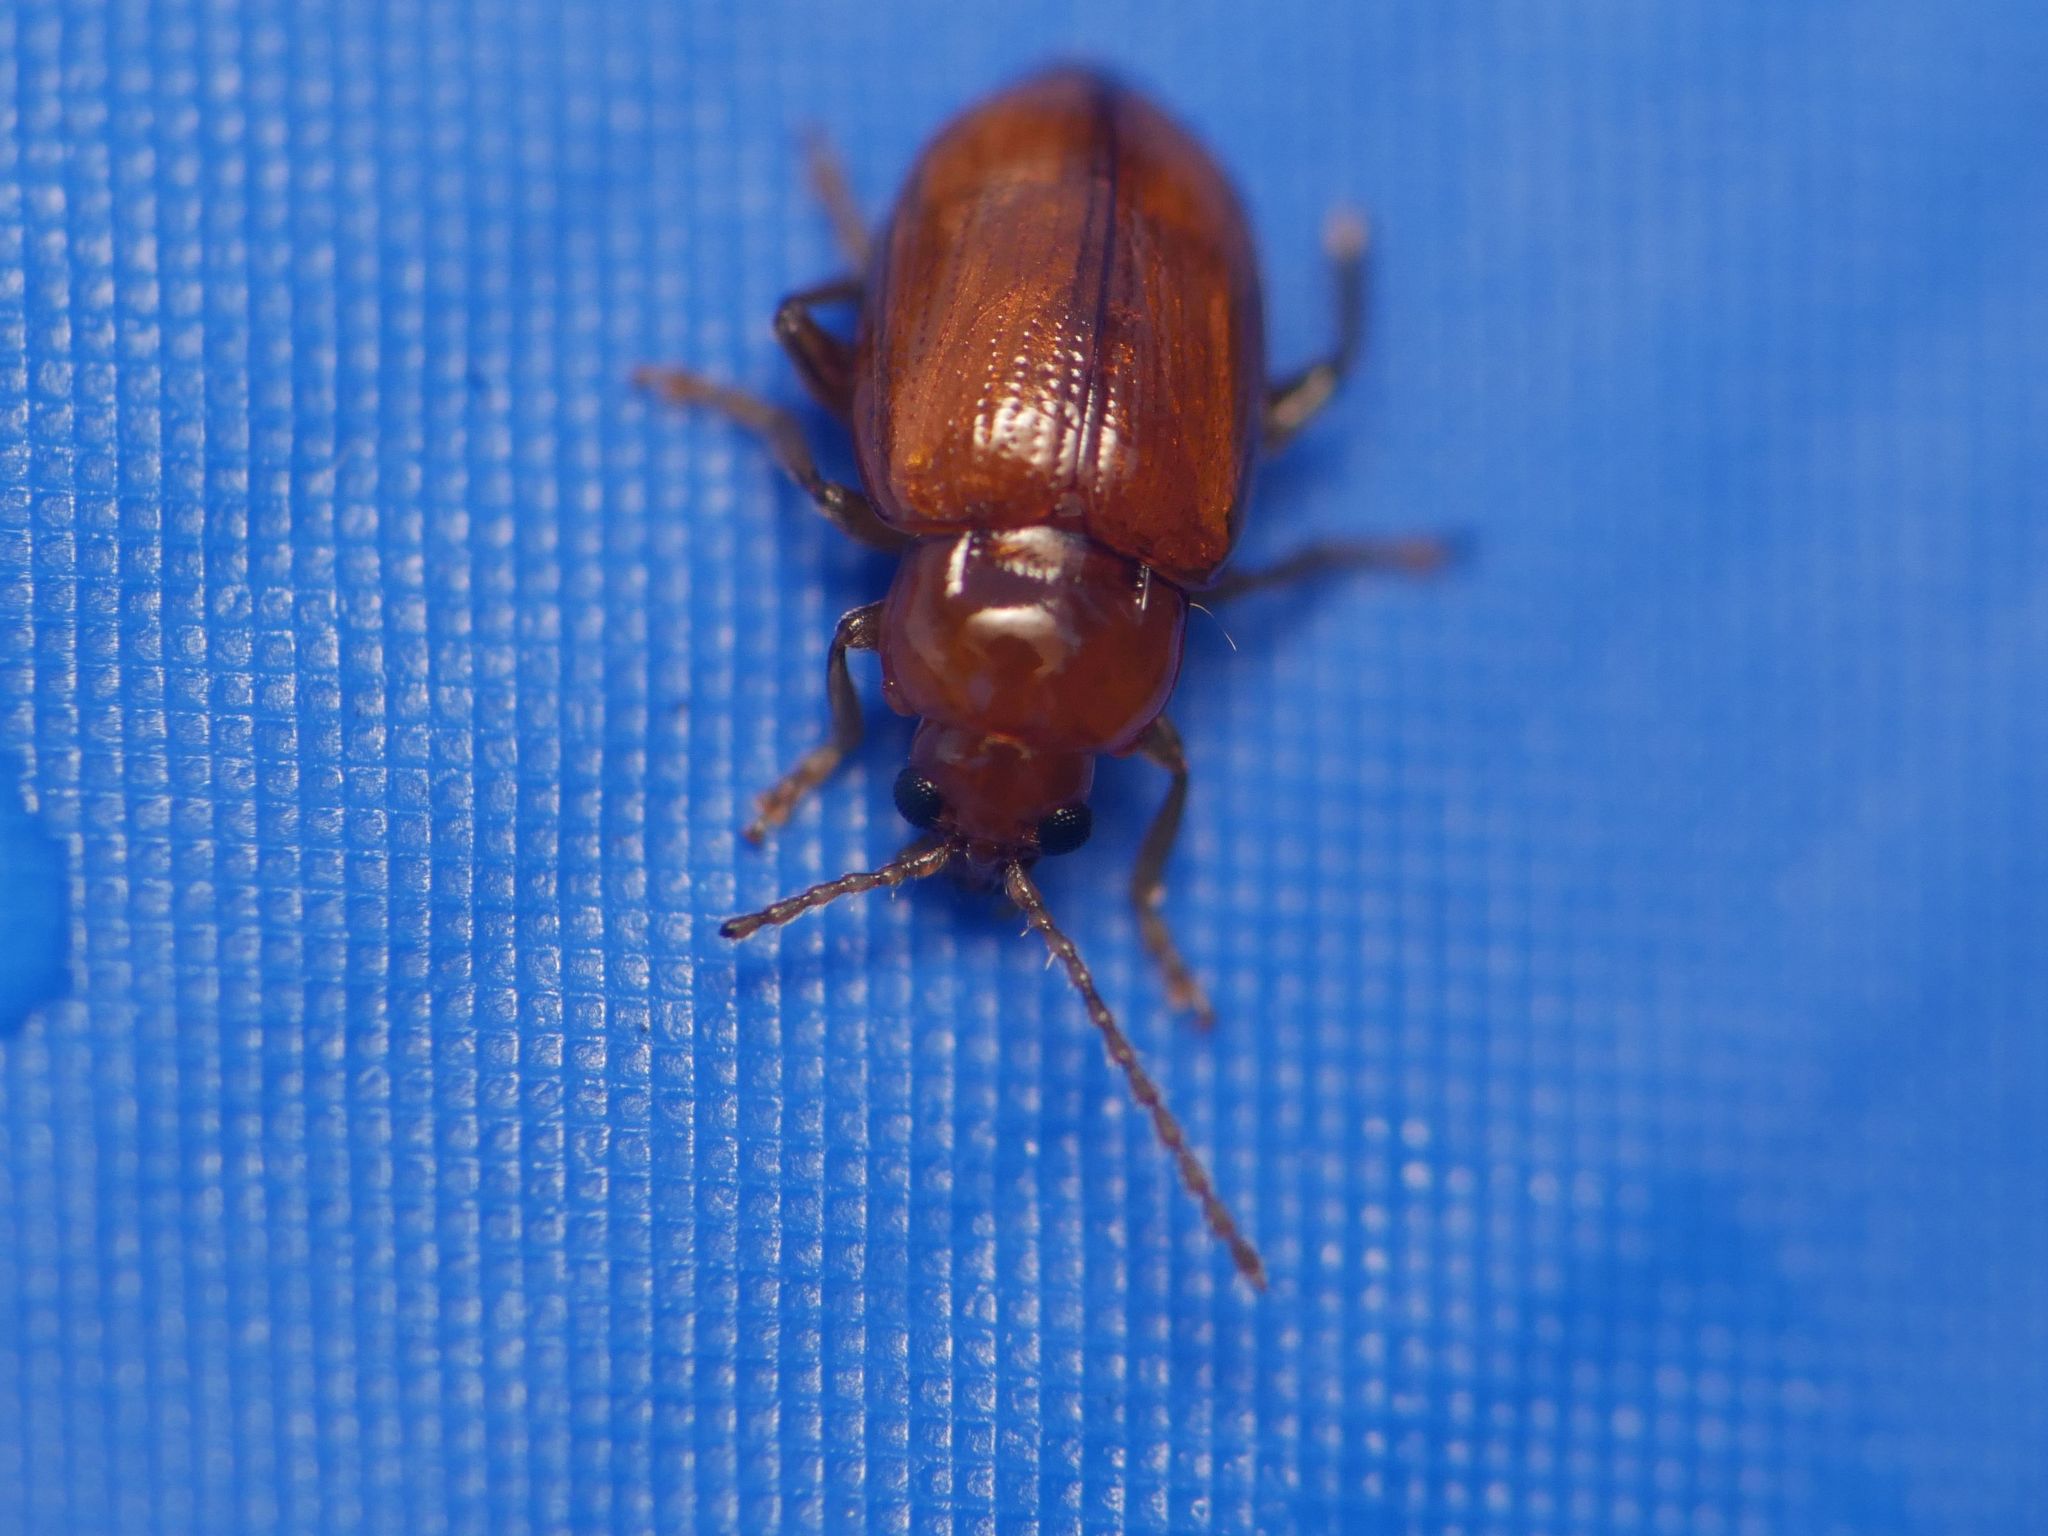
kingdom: Animalia
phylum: Arthropoda
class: Insecta
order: Coleoptera
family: Chrysomelidae
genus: Neocrepidodera
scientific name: Neocrepidodera ferruginea
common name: Wheat flea beetle
